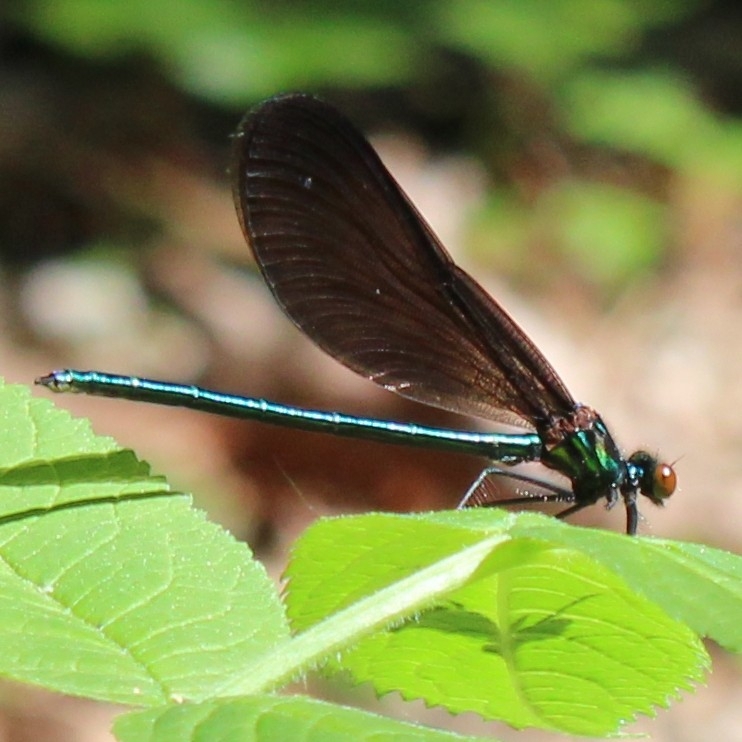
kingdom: Animalia
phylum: Arthropoda
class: Insecta
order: Odonata
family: Calopterygidae
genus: Calopteryx
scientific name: Calopteryx maculata
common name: Ebony jewelwing
